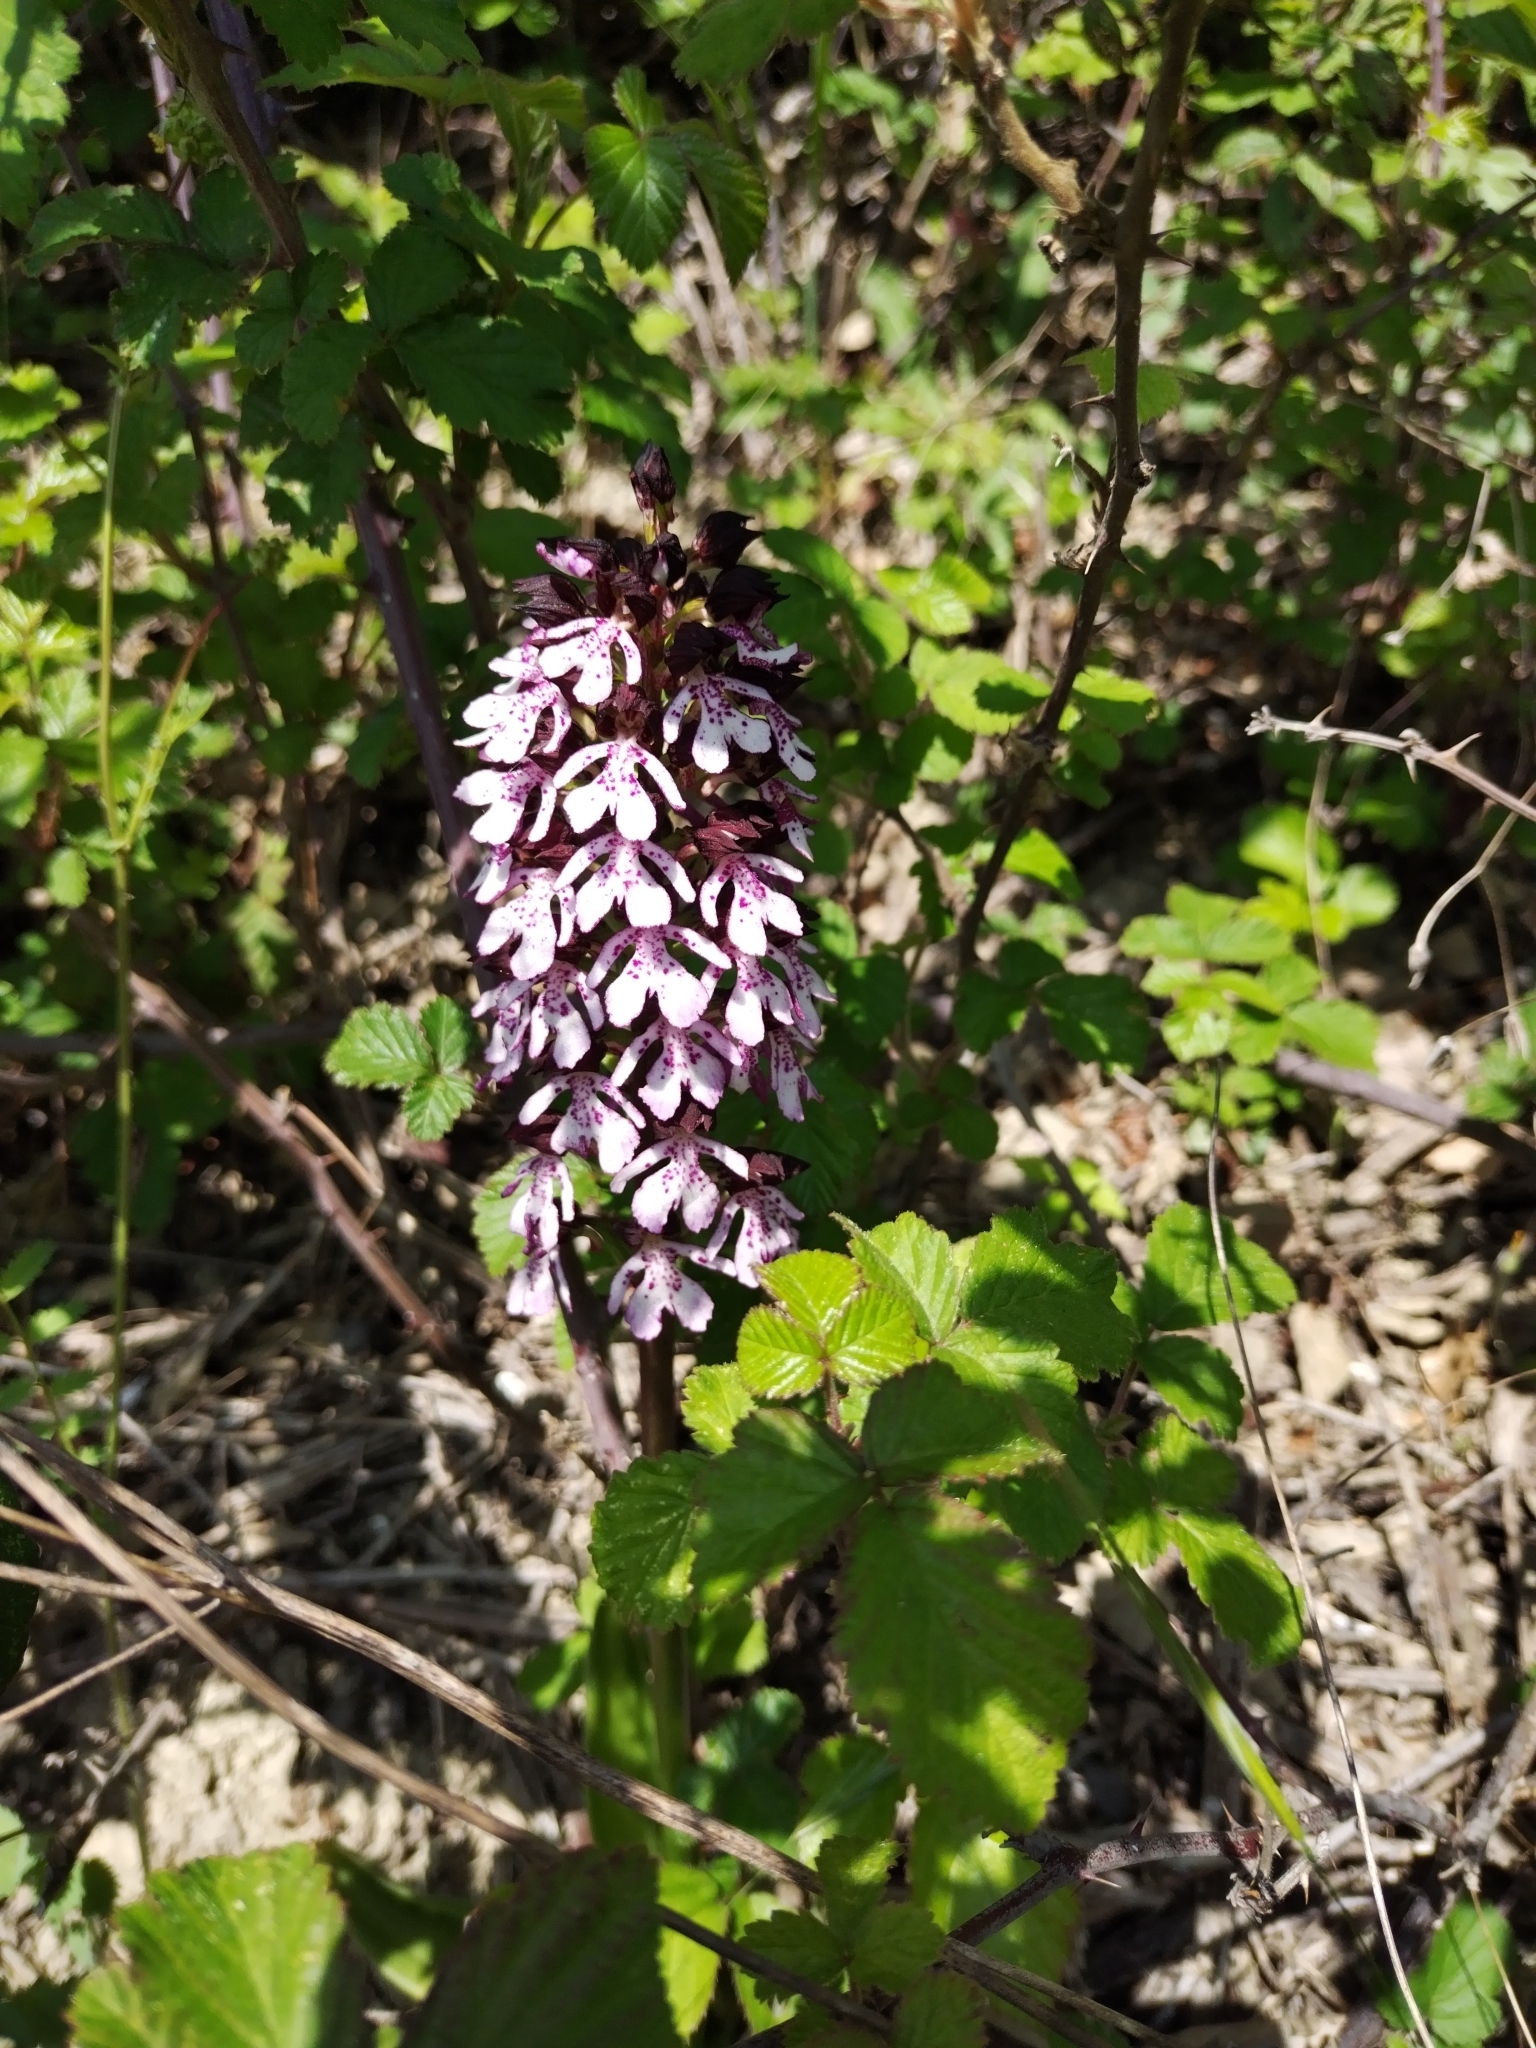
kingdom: Plantae
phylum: Tracheophyta
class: Liliopsida
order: Asparagales
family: Orchidaceae
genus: Orchis
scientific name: Orchis purpurea
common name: Lady orchid
